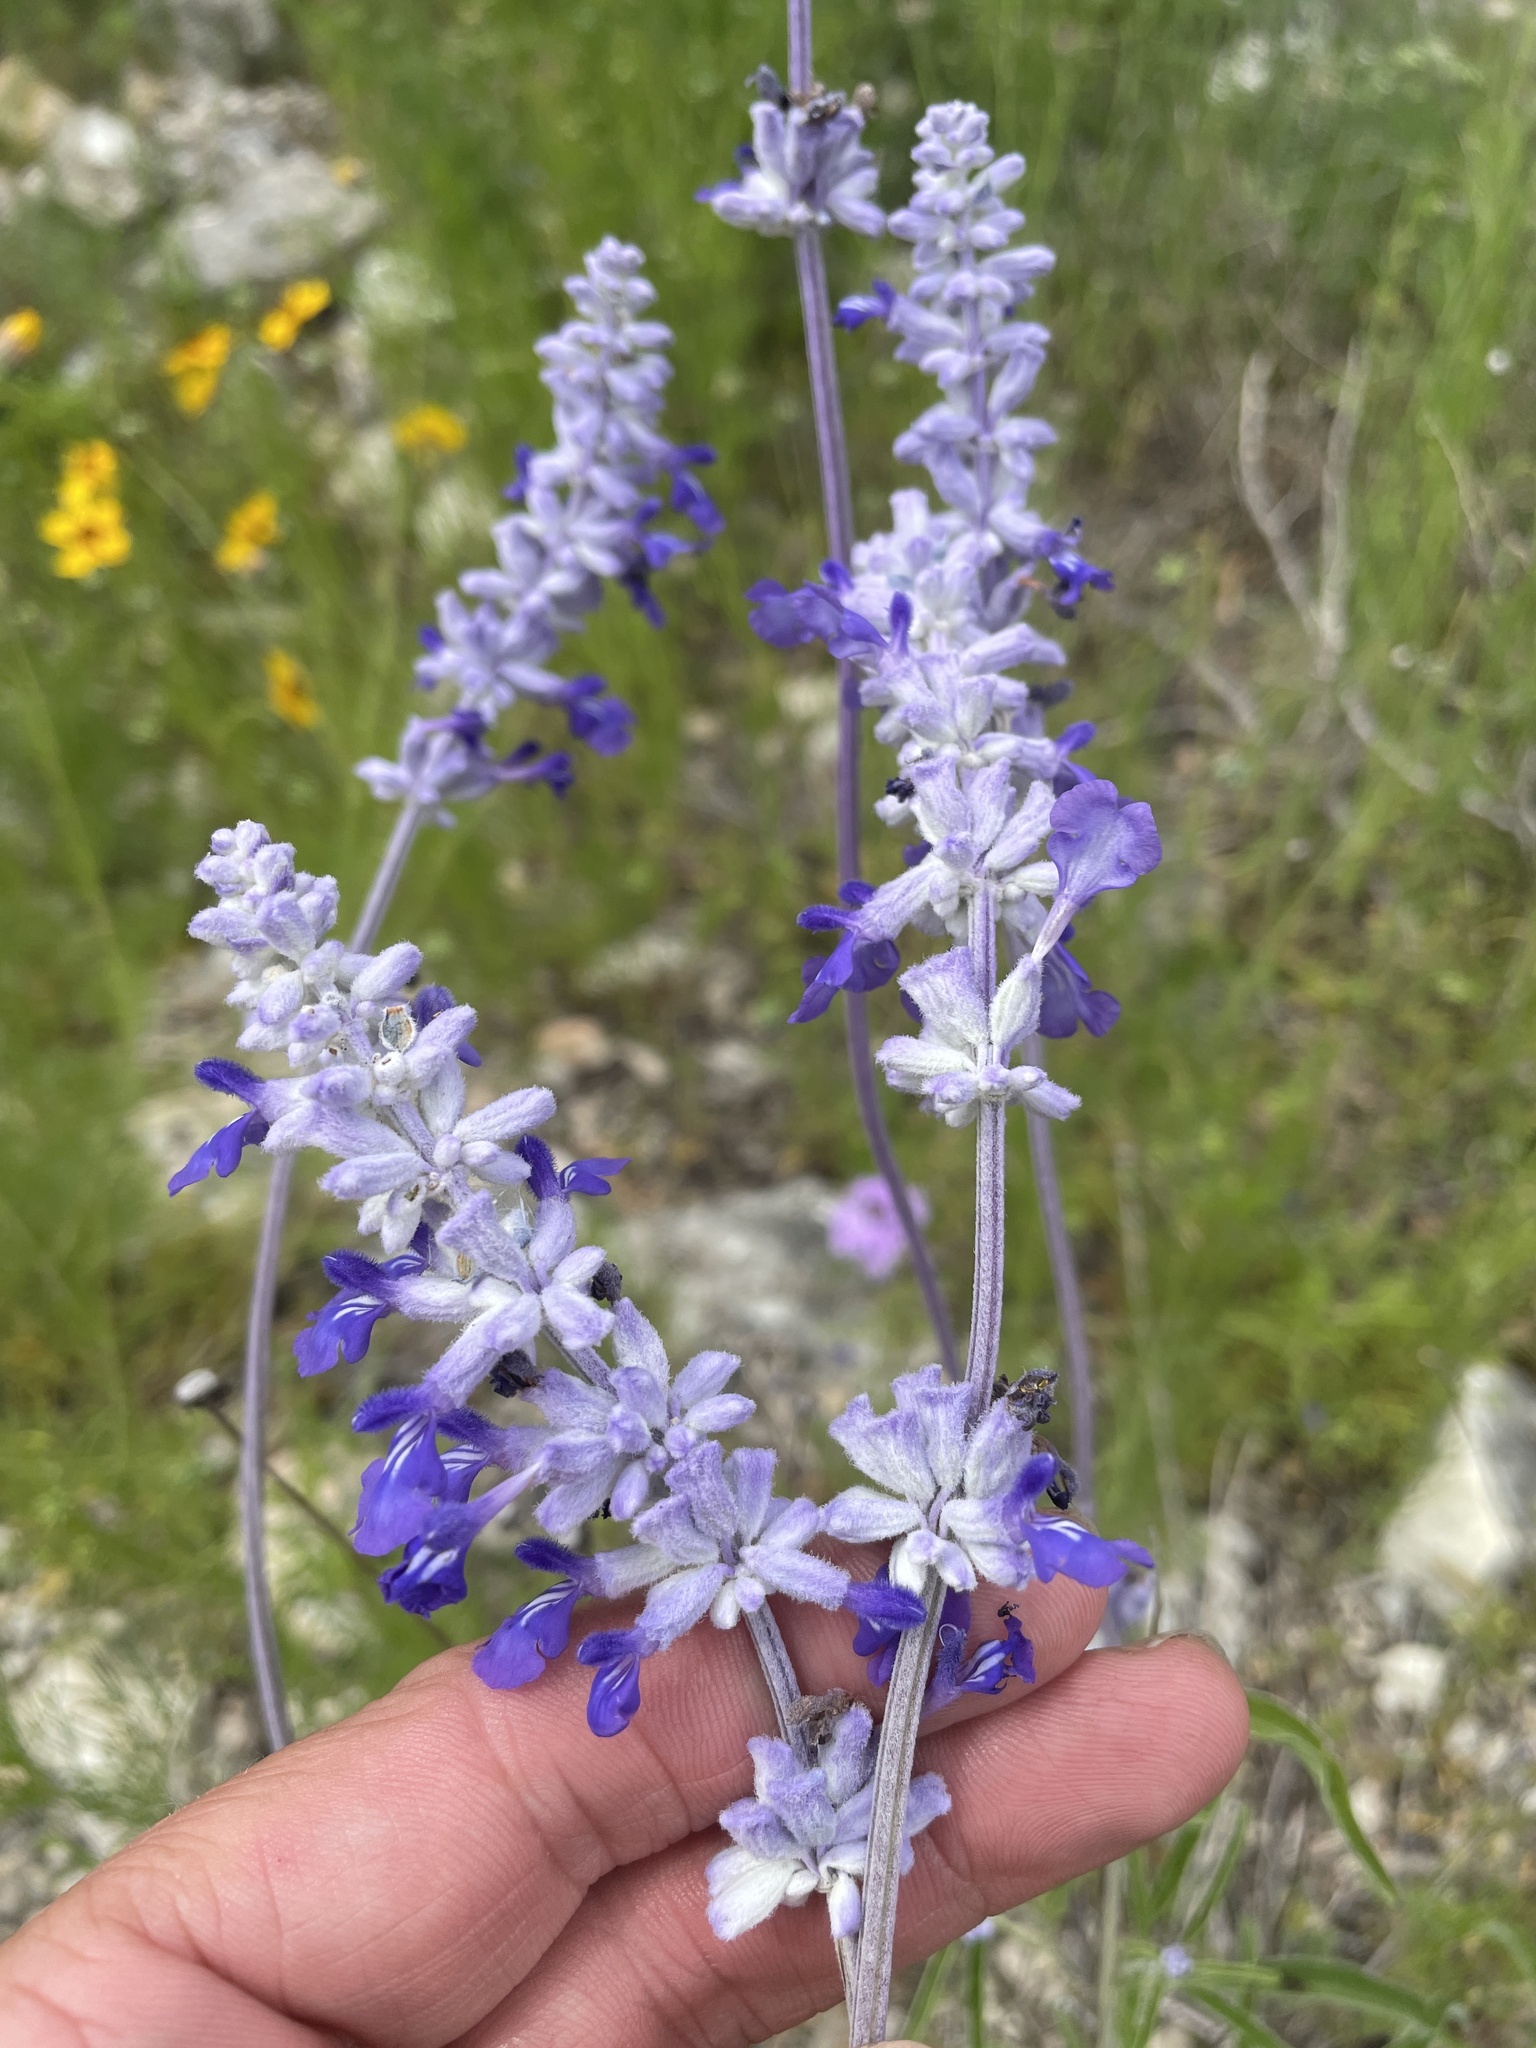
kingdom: Plantae
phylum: Tracheophyta
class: Magnoliopsida
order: Lamiales
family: Lamiaceae
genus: Salvia
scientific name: Salvia farinacea
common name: Mealy sage
